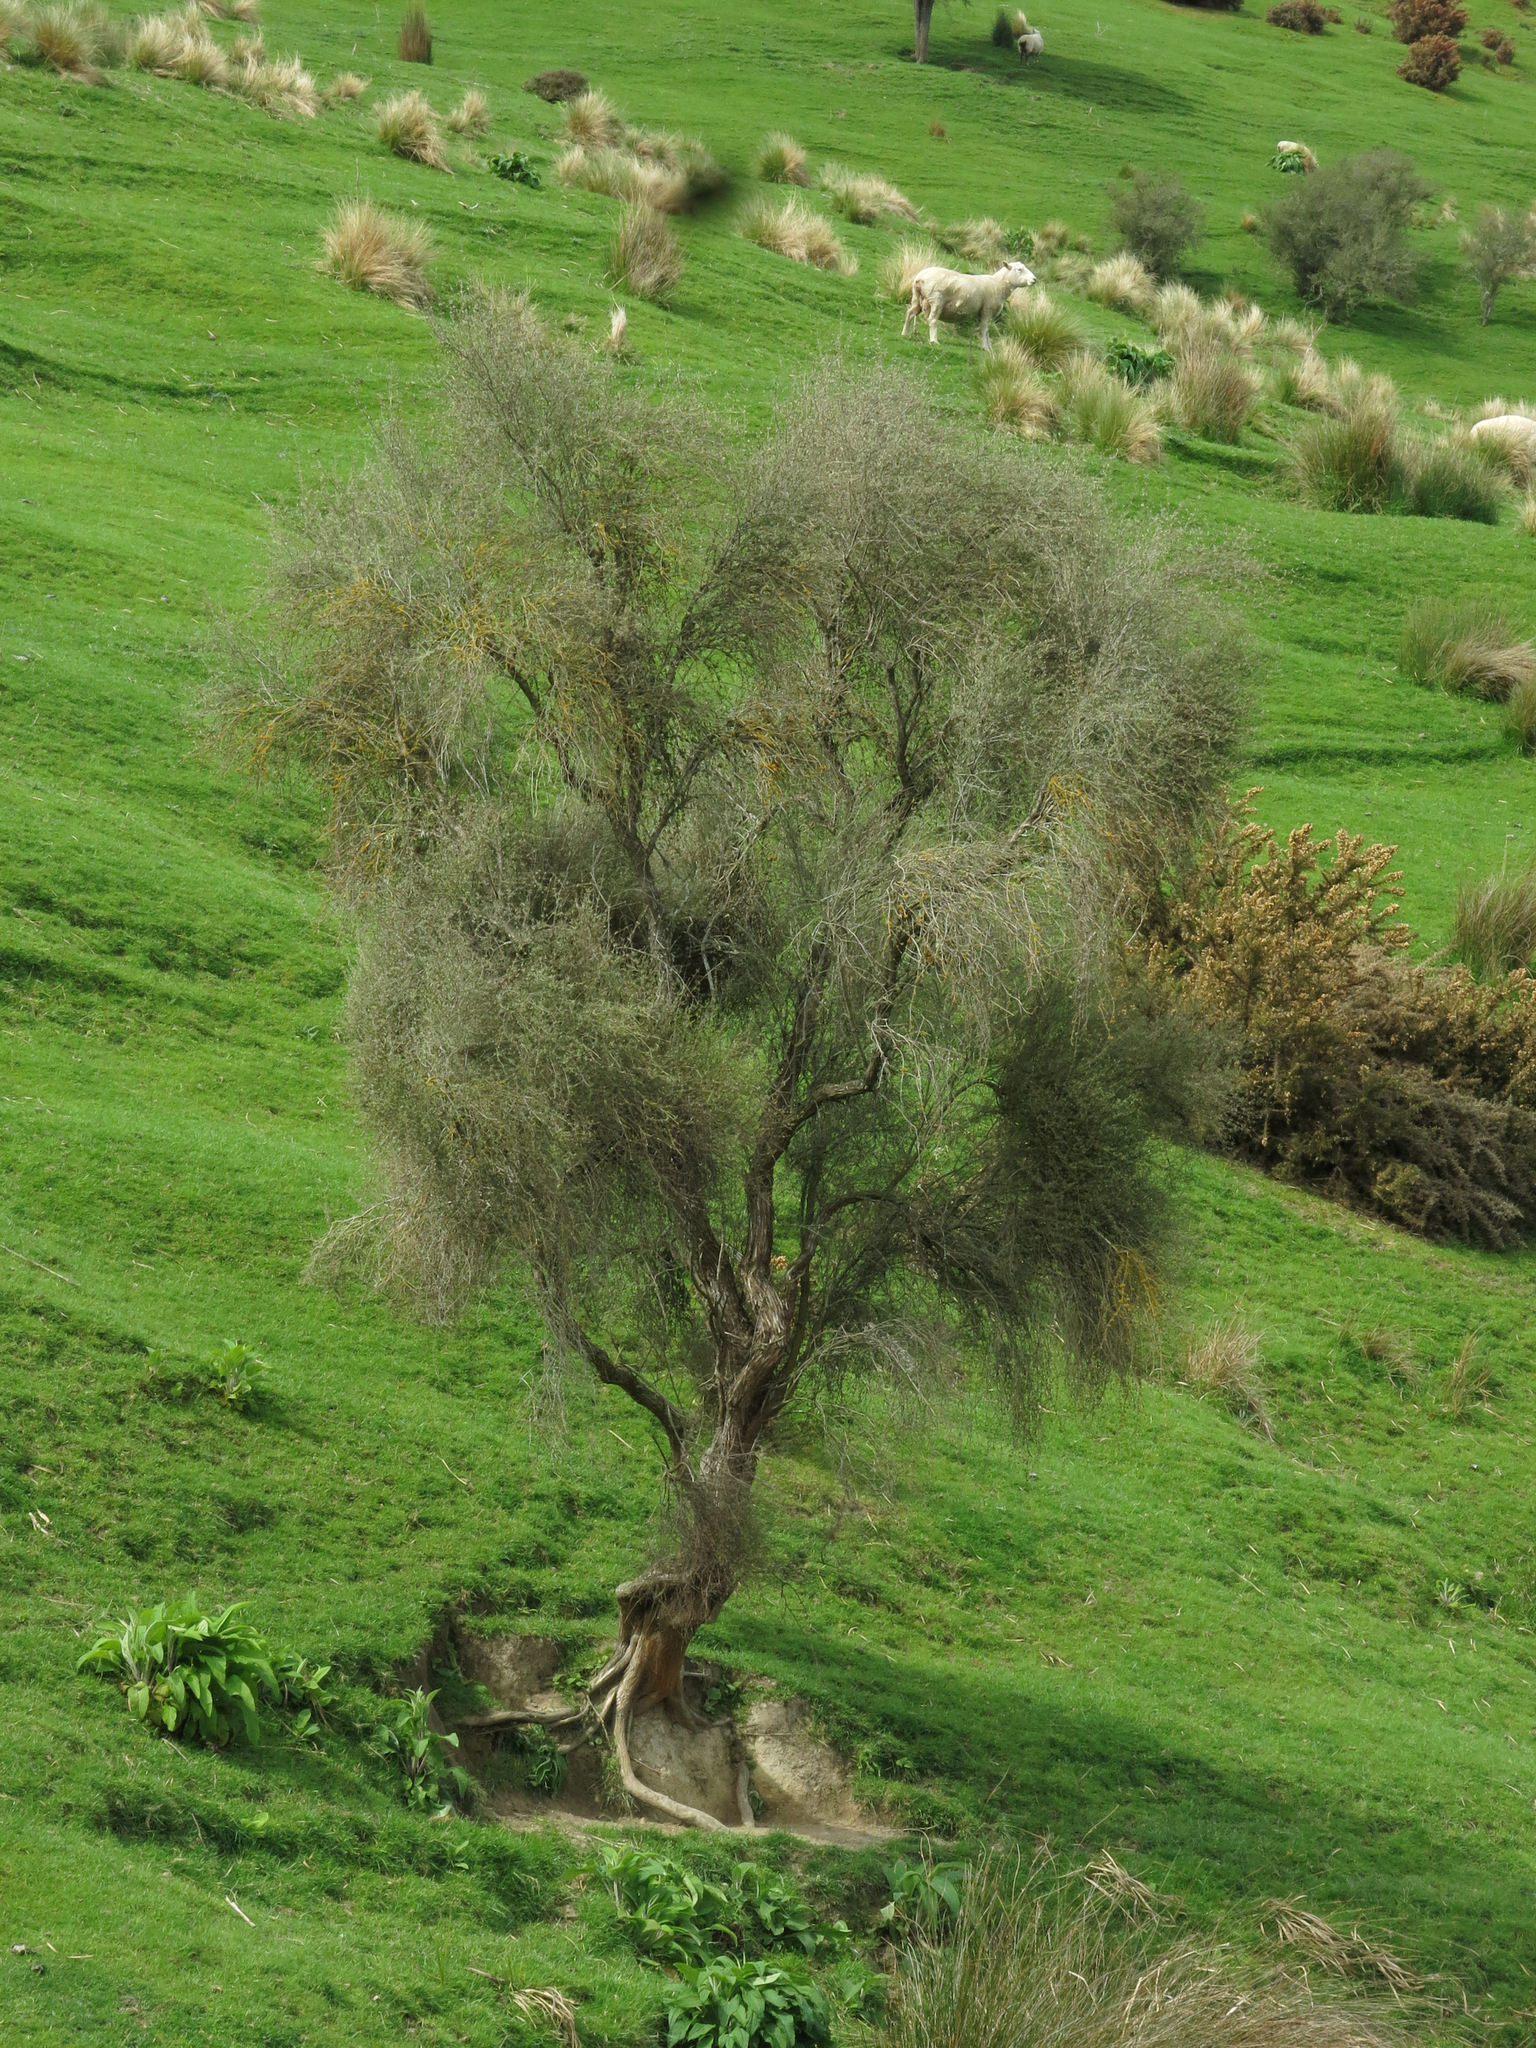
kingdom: Plantae
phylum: Tracheophyta
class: Magnoliopsida
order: Asterales
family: Asteraceae
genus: Olearia
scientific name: Olearia lineata
